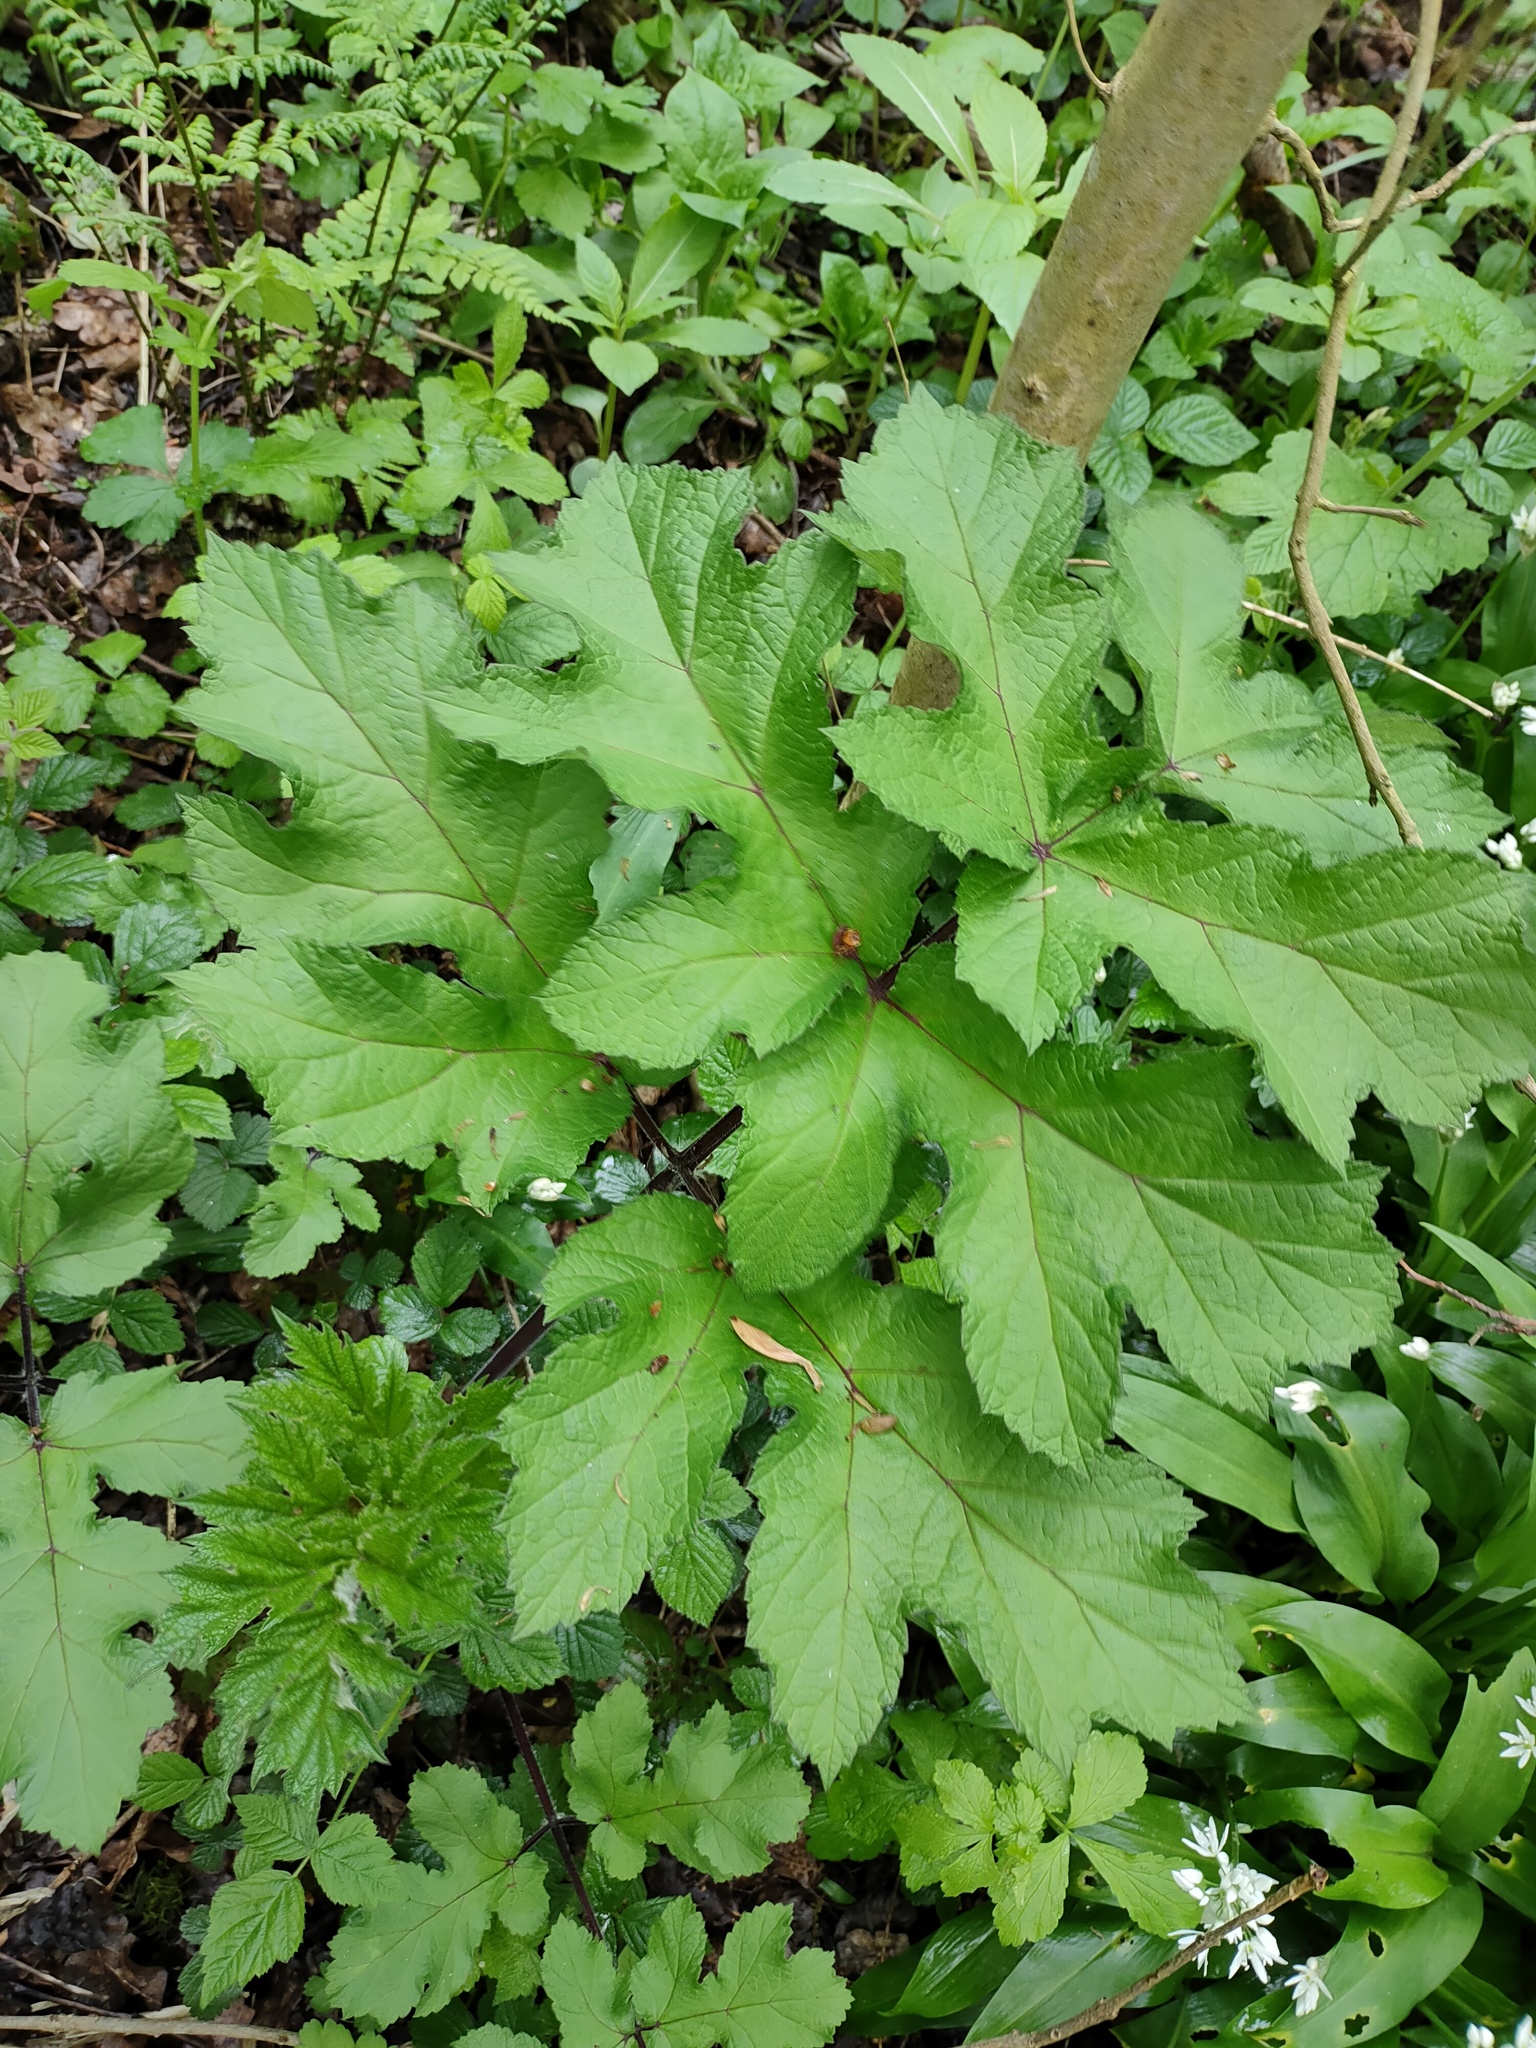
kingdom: Plantae
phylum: Tracheophyta
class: Magnoliopsida
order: Apiales
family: Apiaceae
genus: Heracleum
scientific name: Heracleum sphondylium
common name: Hogweed
